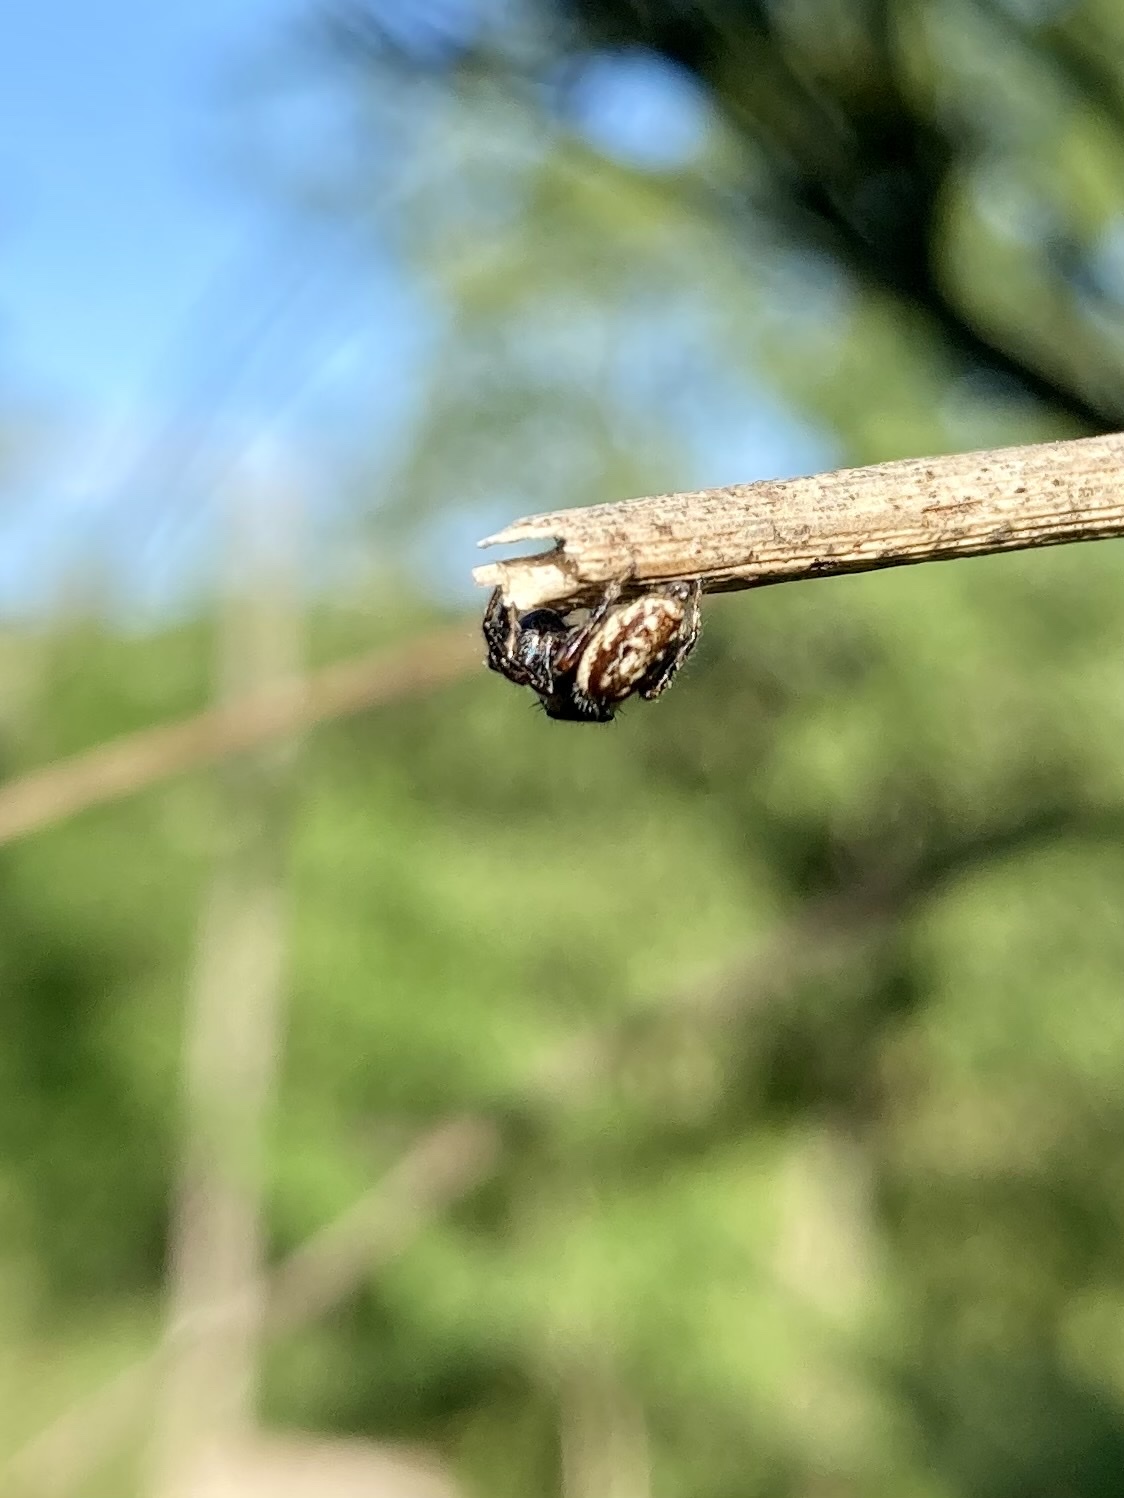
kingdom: Animalia
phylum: Arthropoda
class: Arachnida
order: Araneae
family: Salticidae
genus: Macaroeris
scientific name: Macaroeris nidicolens
